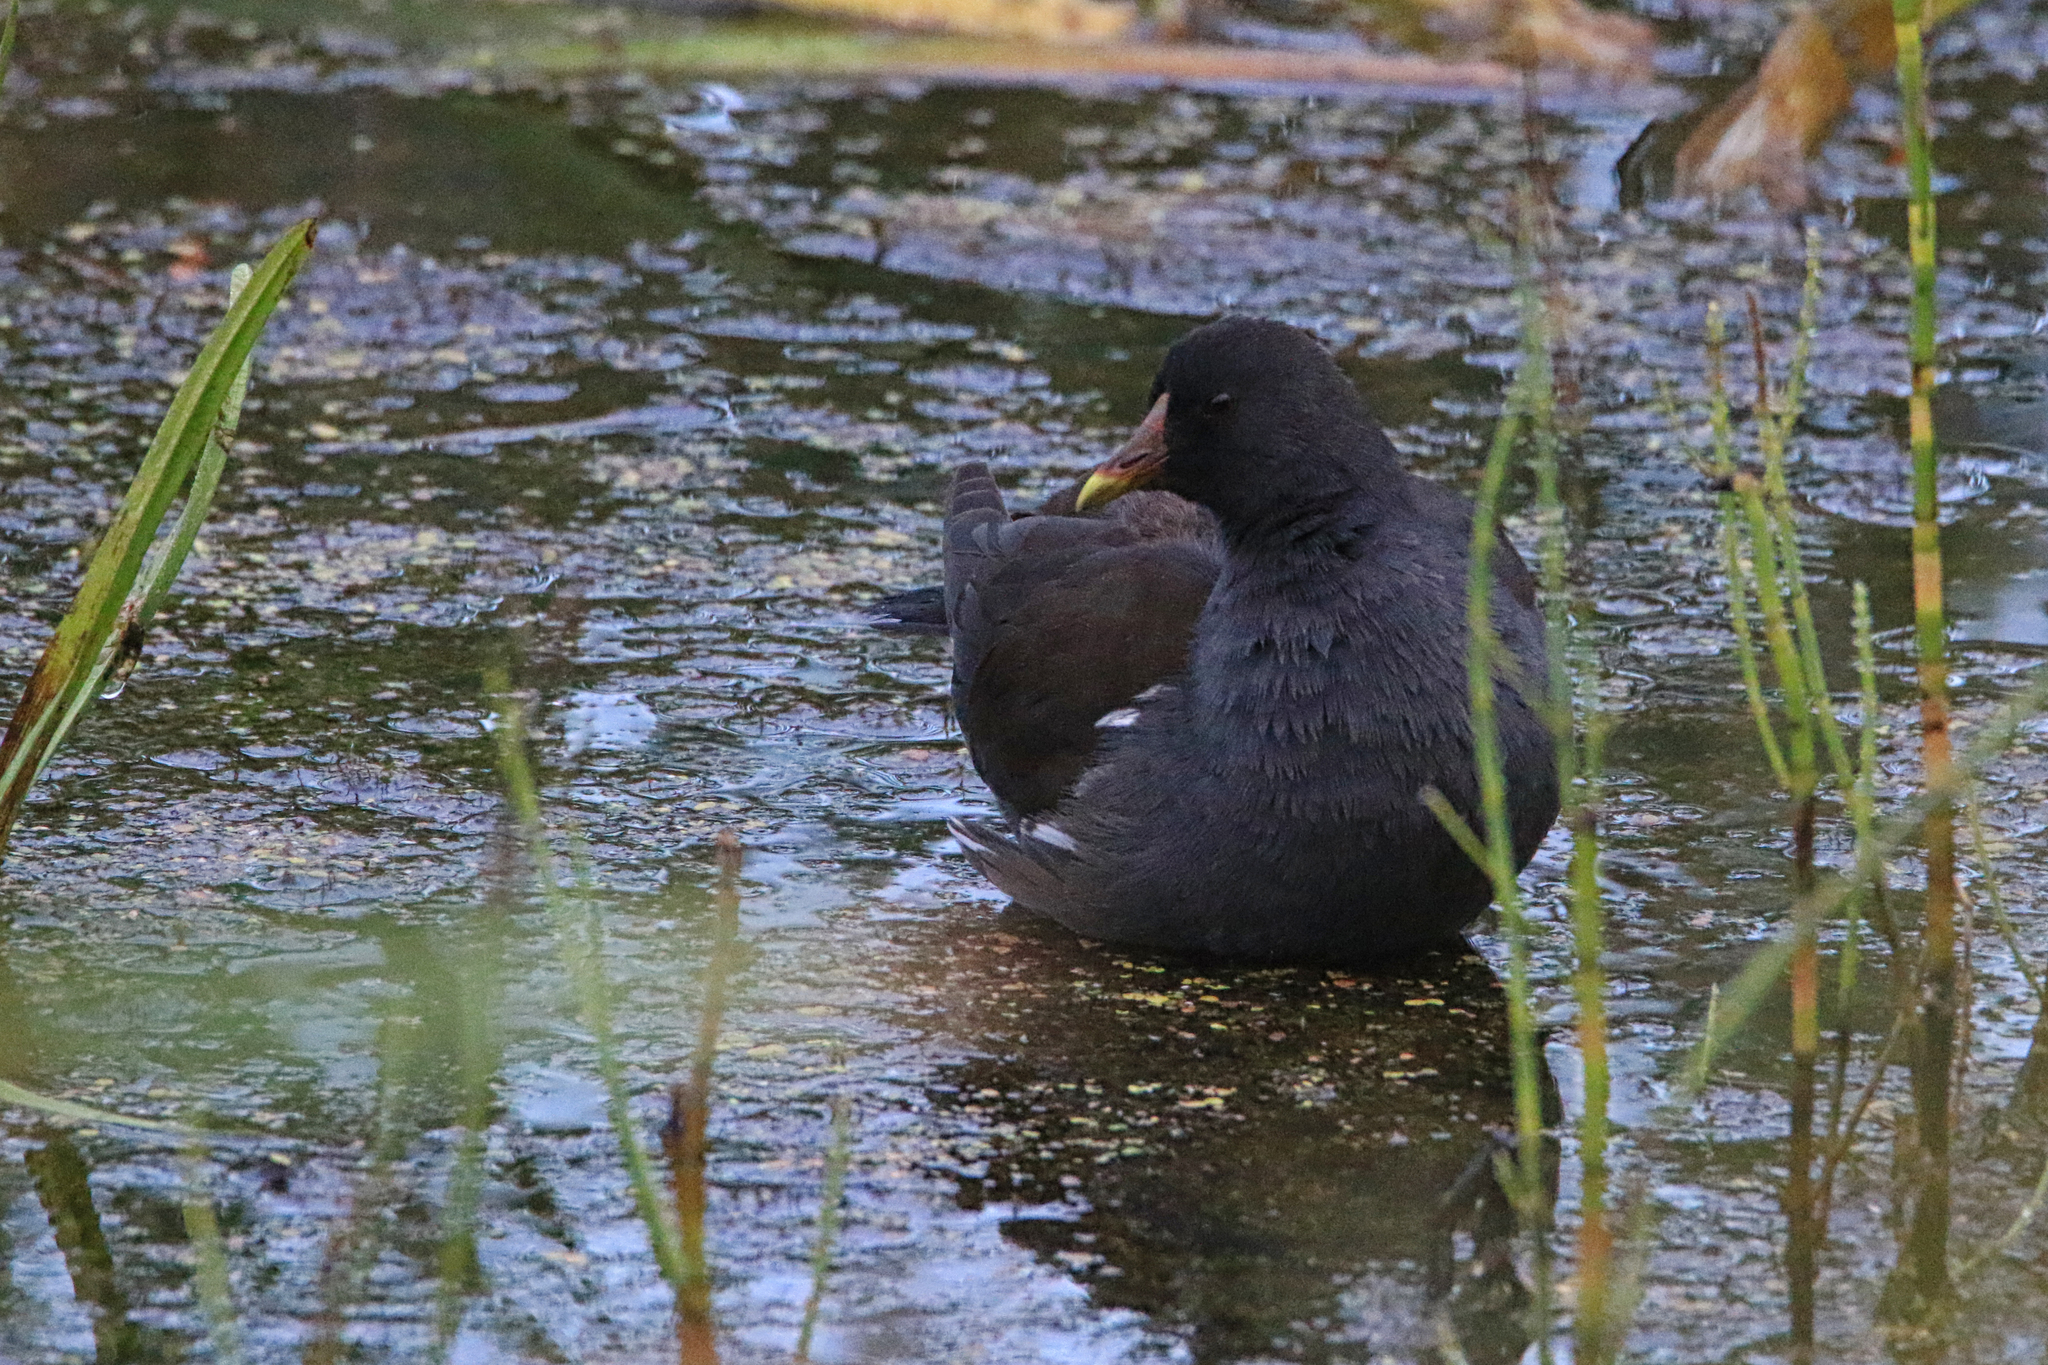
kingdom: Animalia
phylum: Chordata
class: Aves
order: Gruiformes
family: Rallidae
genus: Gallinula
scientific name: Gallinula chloropus
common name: Common moorhen
